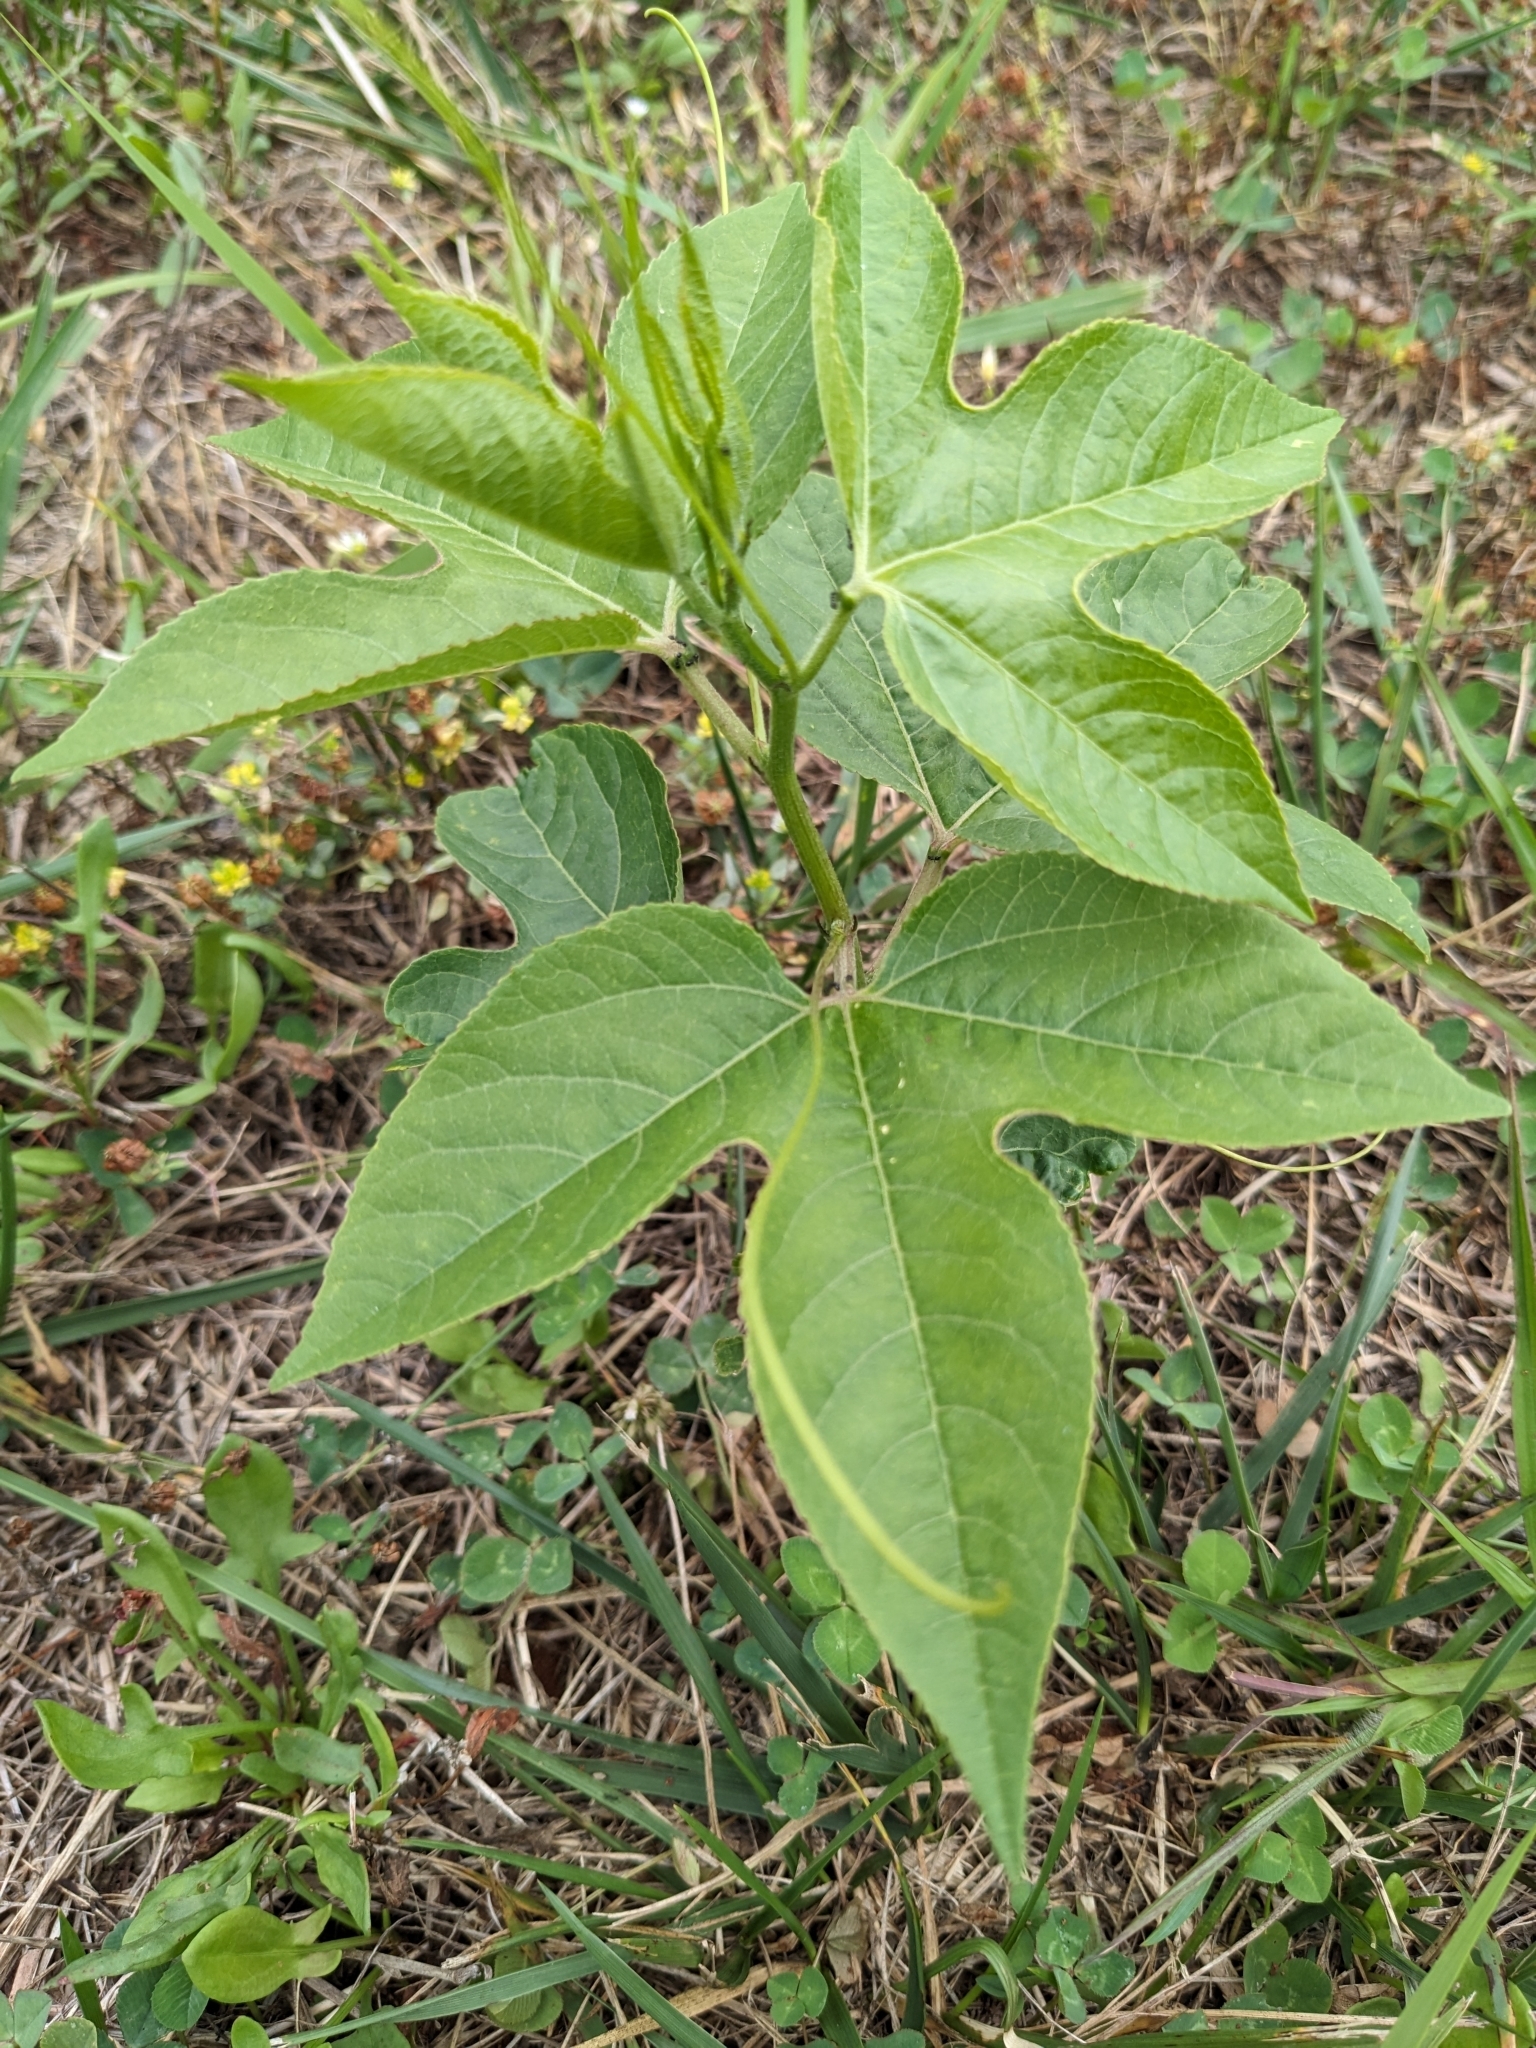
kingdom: Plantae
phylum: Tracheophyta
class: Magnoliopsida
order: Malpighiales
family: Passifloraceae
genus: Passiflora
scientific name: Passiflora incarnata
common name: Apricot-vine
